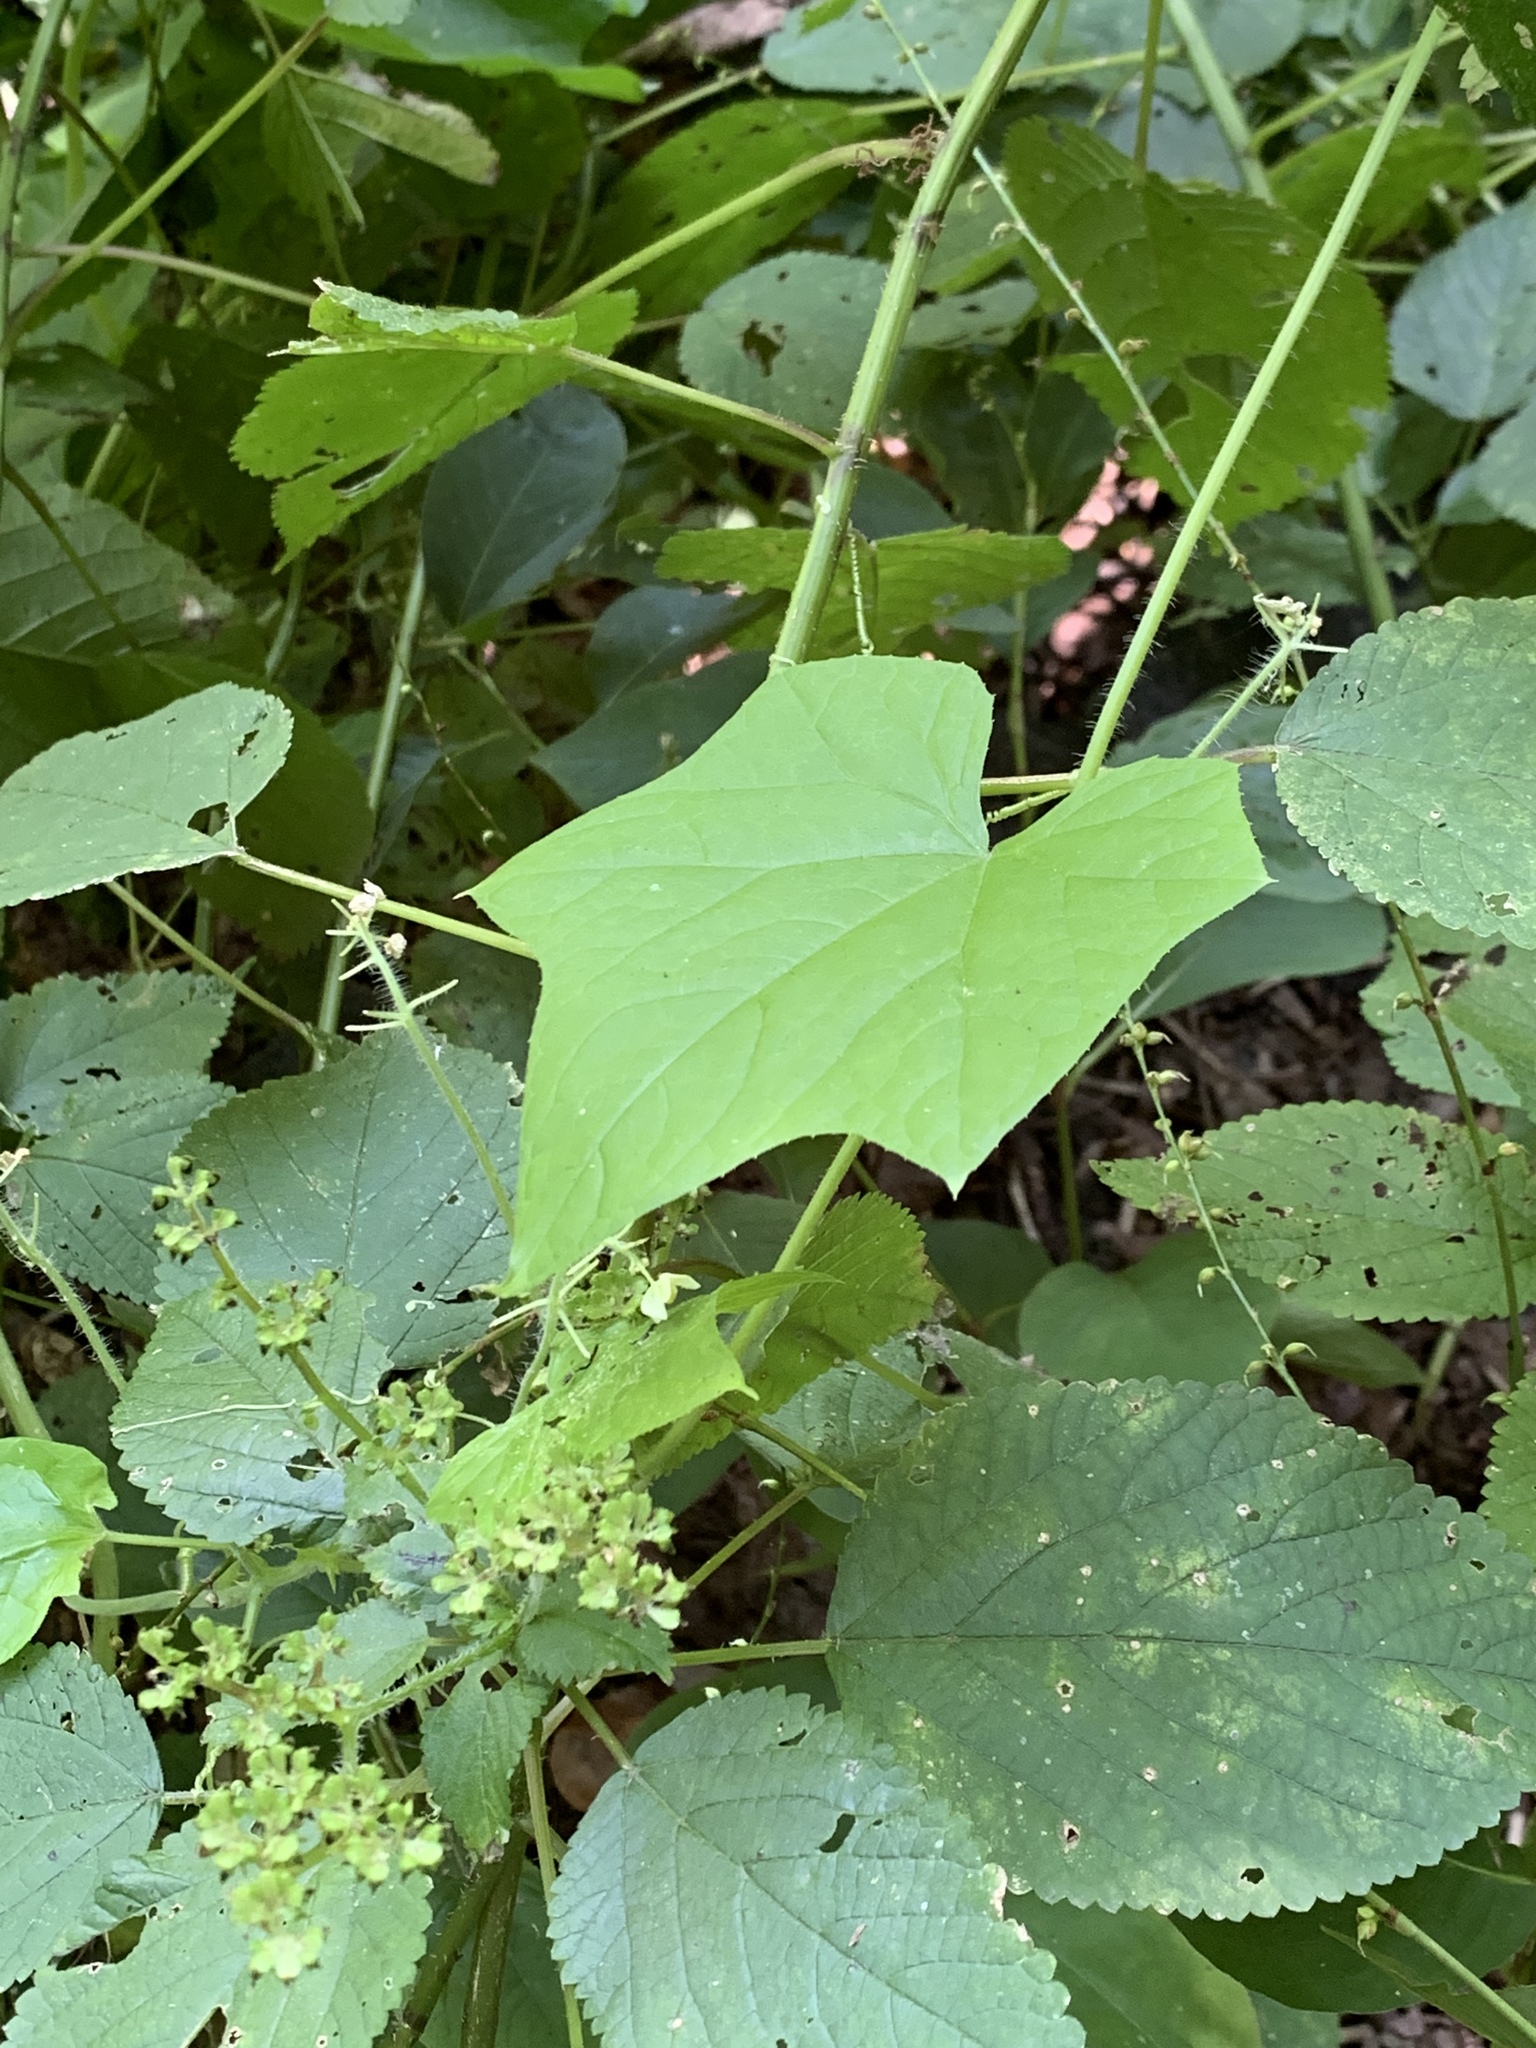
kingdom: Plantae
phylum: Tracheophyta
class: Magnoliopsida
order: Cucurbitales
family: Cucurbitaceae
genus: Sicyos
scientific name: Sicyos angulatus
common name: Angled burr cucumber
